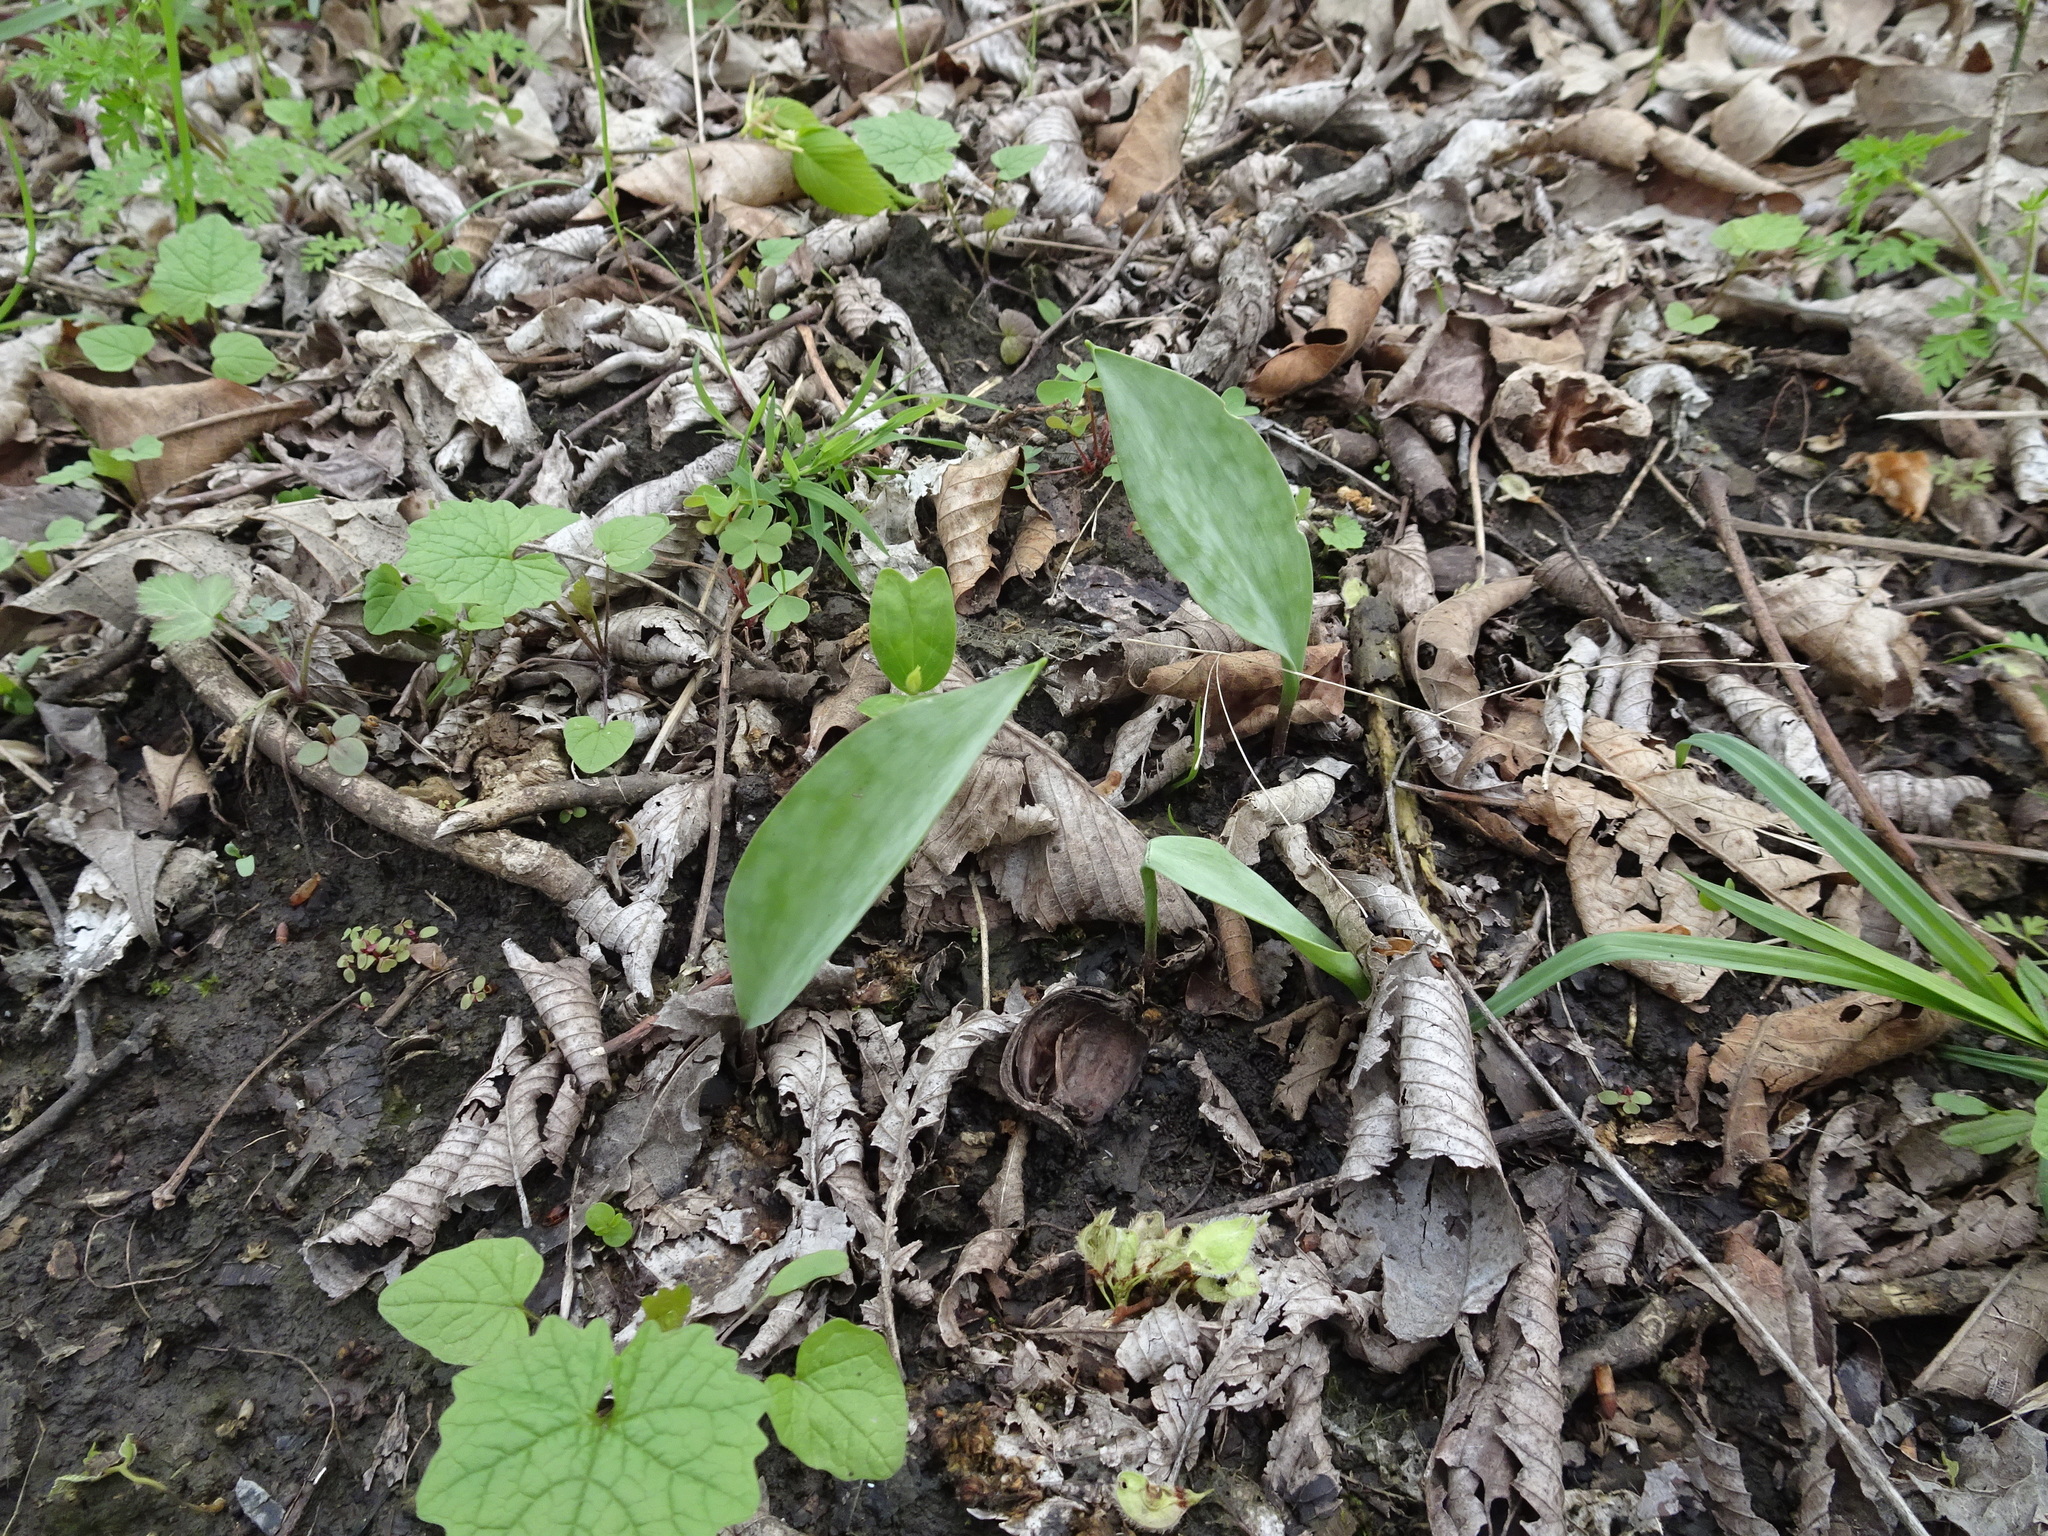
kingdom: Plantae
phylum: Tracheophyta
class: Liliopsida
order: Liliales
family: Liliaceae
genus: Erythronium
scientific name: Erythronium albidum
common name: White trout-lily
